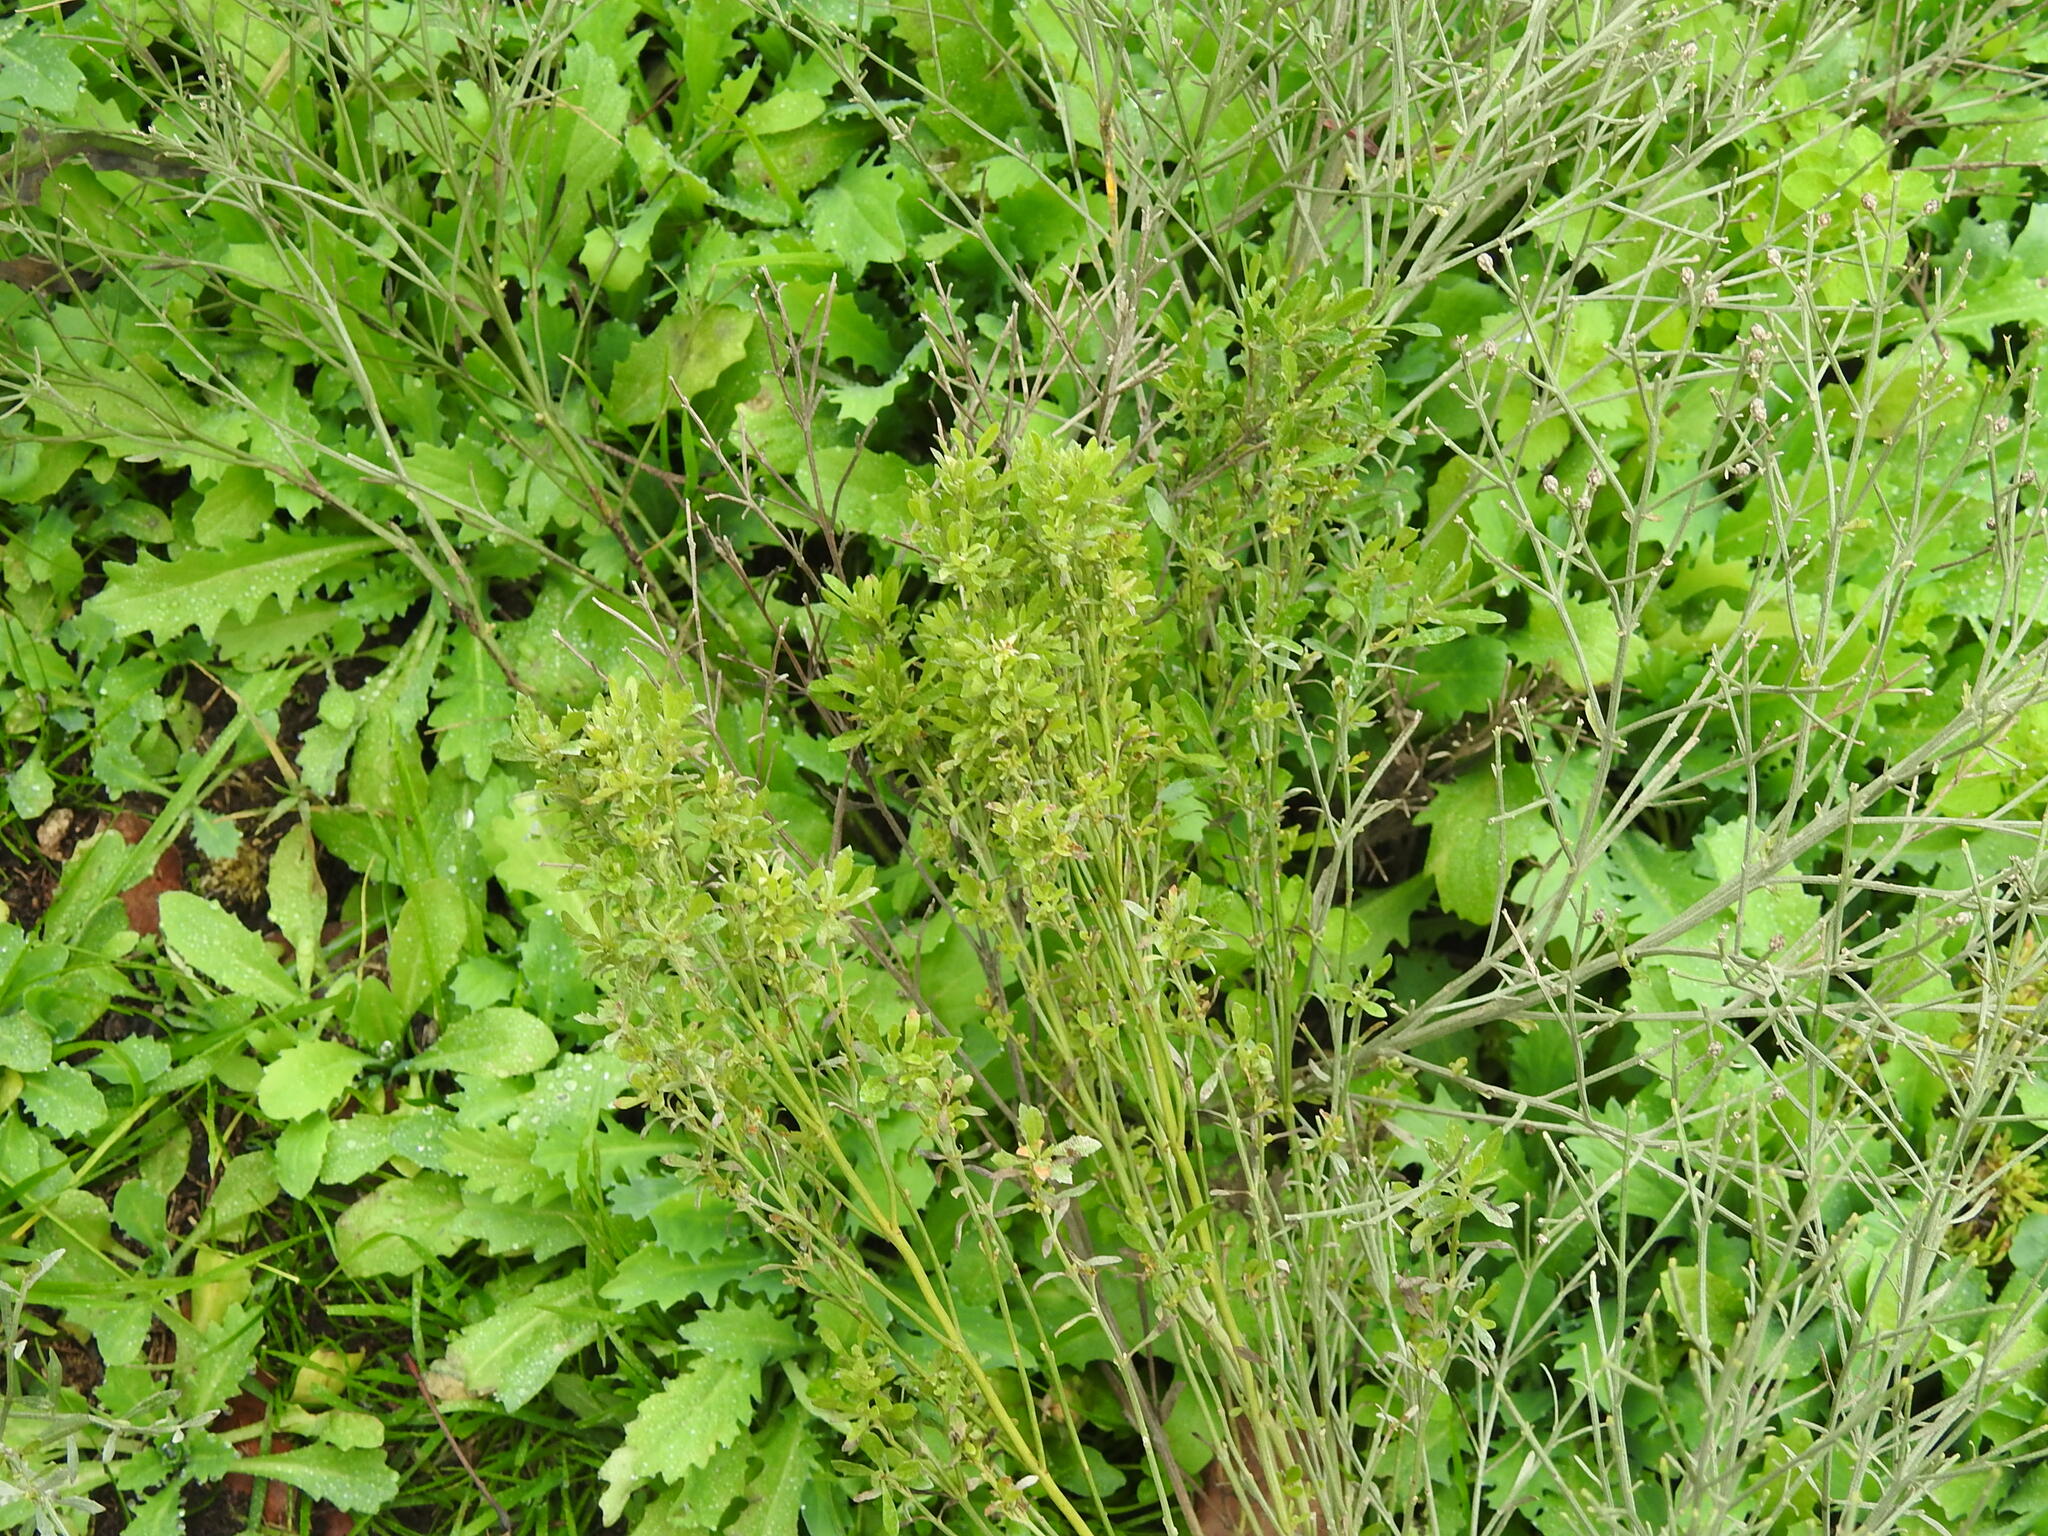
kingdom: Plantae
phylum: Tracheophyta
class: Magnoliopsida
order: Asterales
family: Asteraceae
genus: Baccharis
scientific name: Baccharis notosergila
